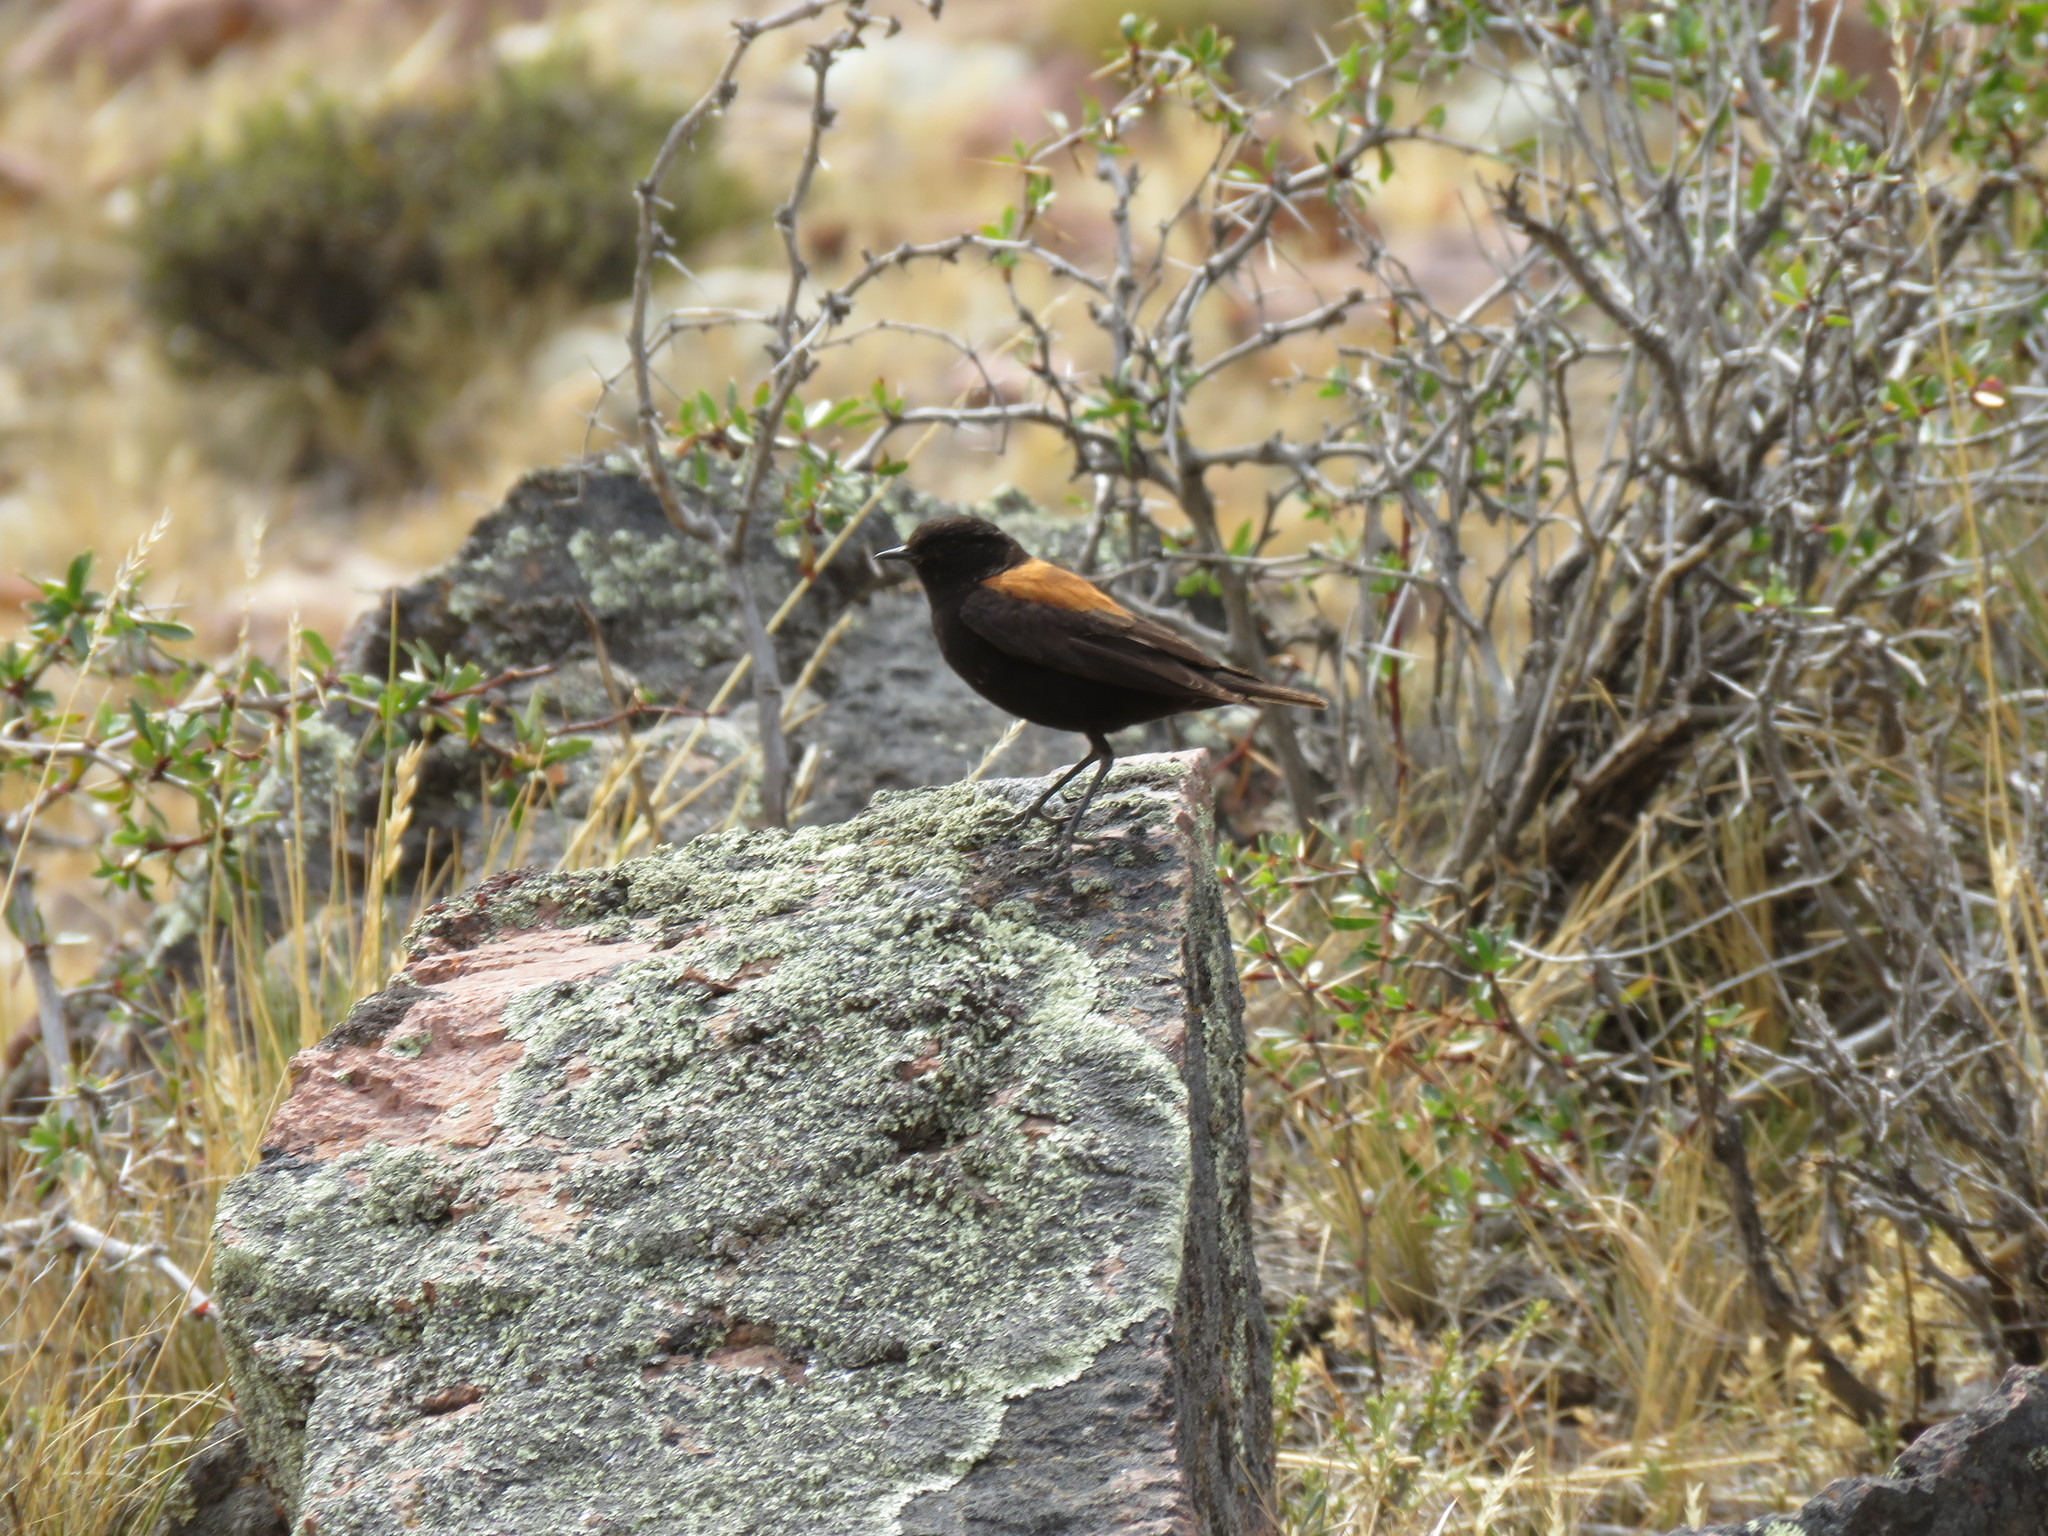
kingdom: Animalia
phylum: Chordata
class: Aves
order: Passeriformes
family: Tyrannidae
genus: Lessonia
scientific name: Lessonia rufa
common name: Austral negrito
